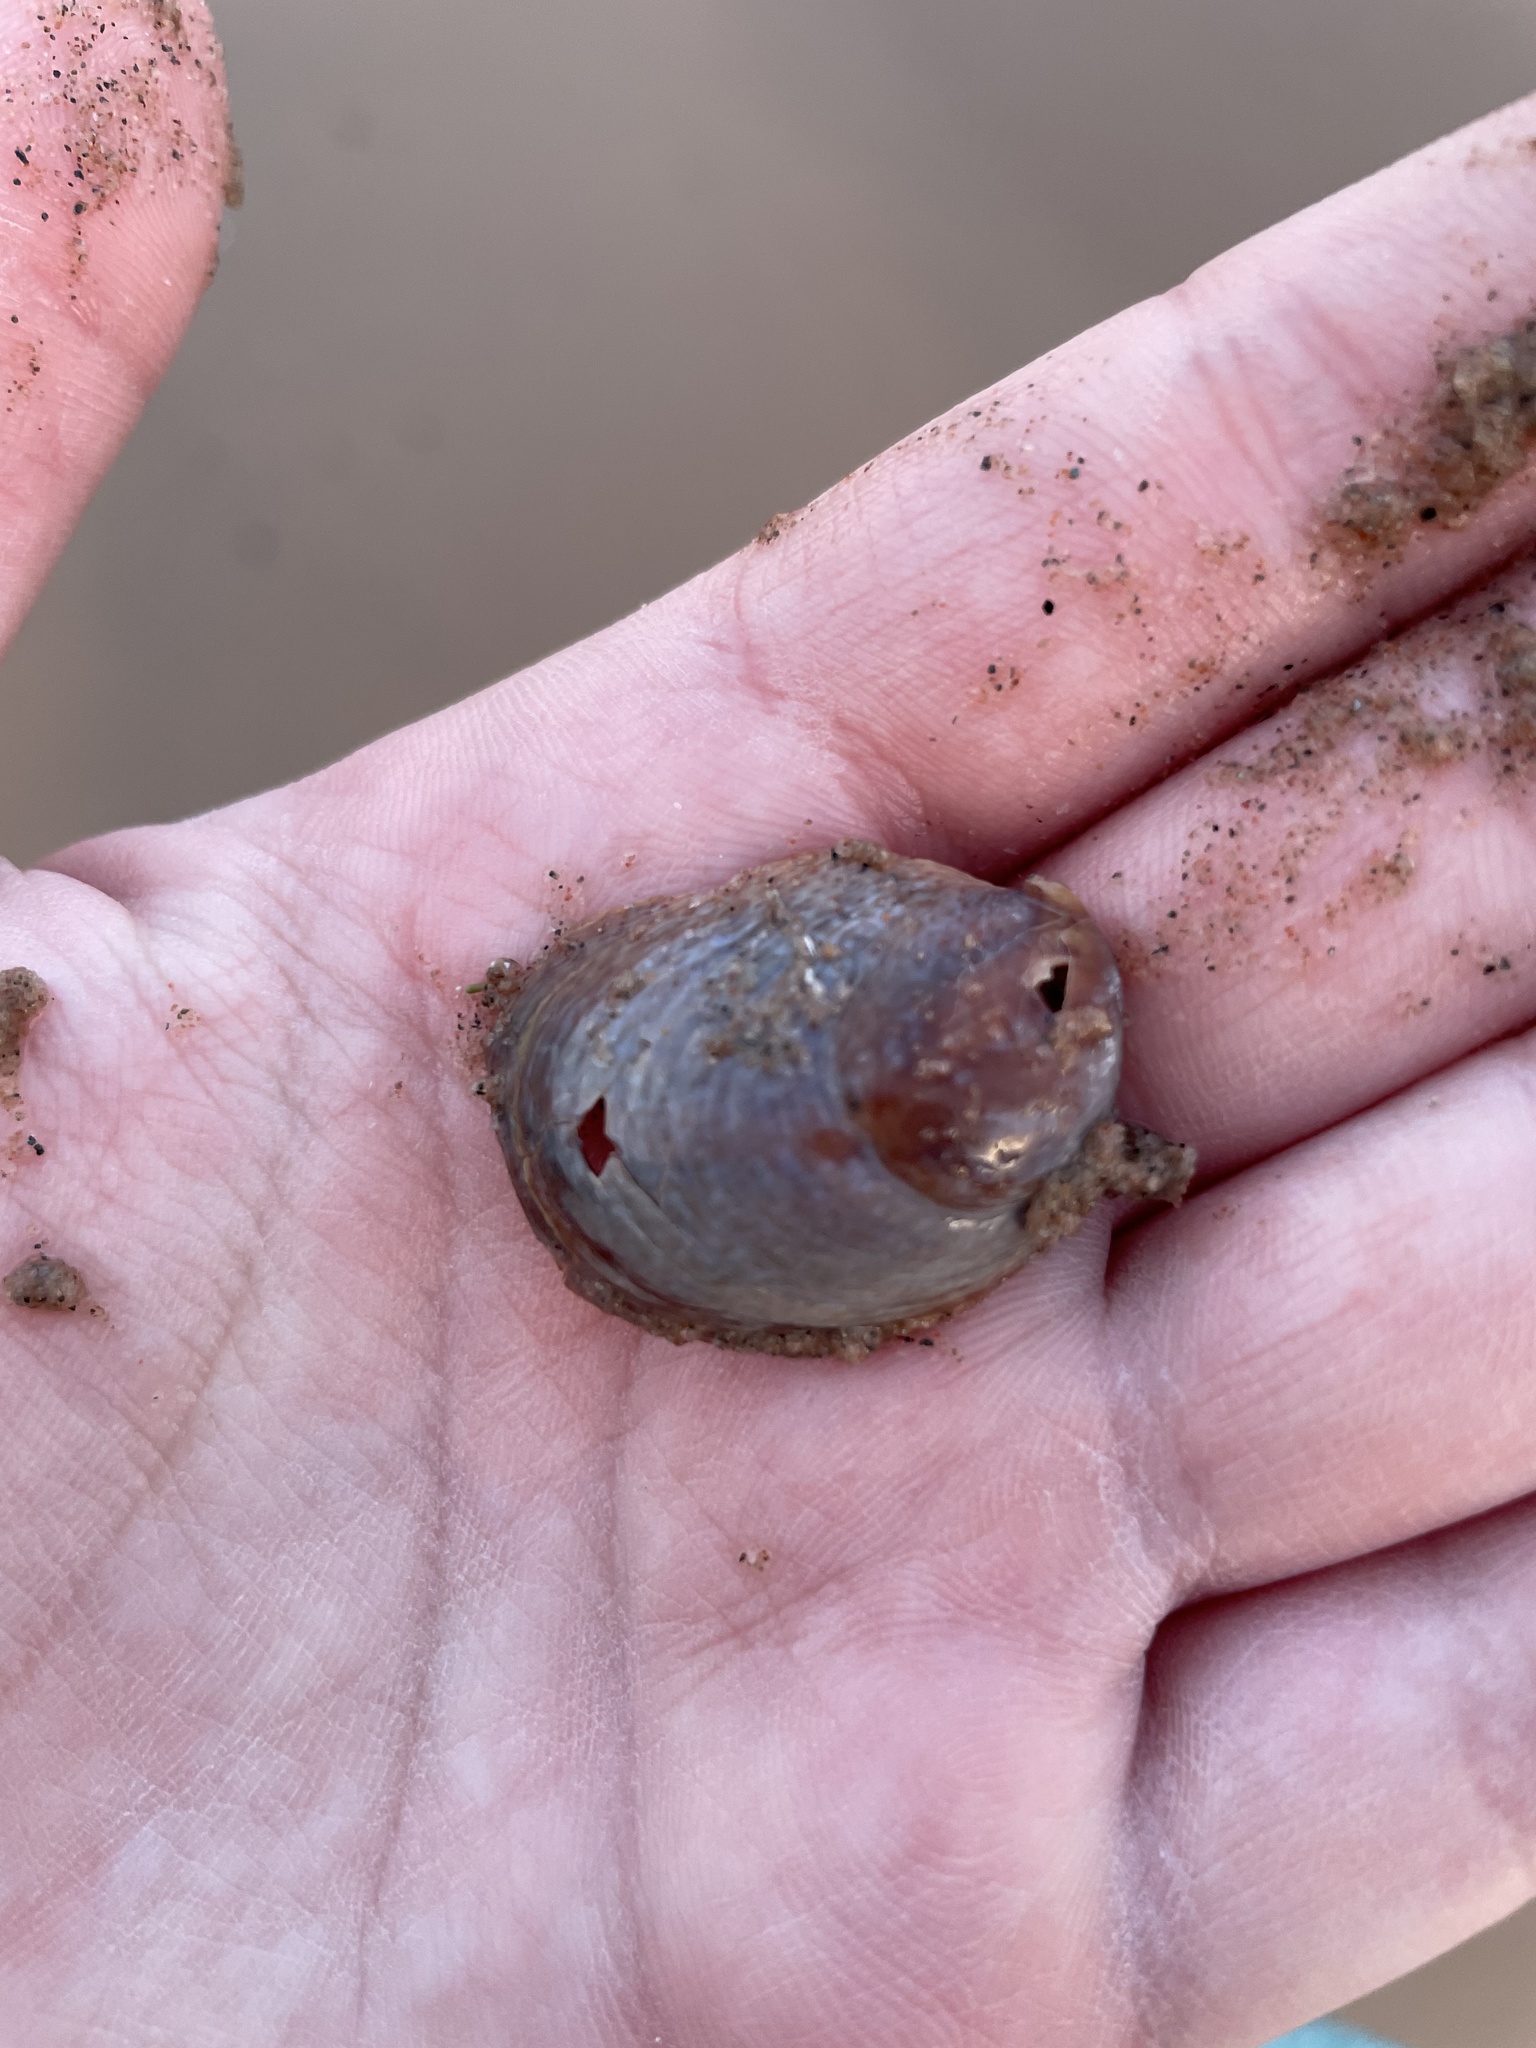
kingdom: Animalia
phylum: Mollusca
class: Gastropoda
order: Littorinimorpha
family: Calyptraeidae
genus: Crepidula
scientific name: Crepidula fornicata
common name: Slipper limpet
